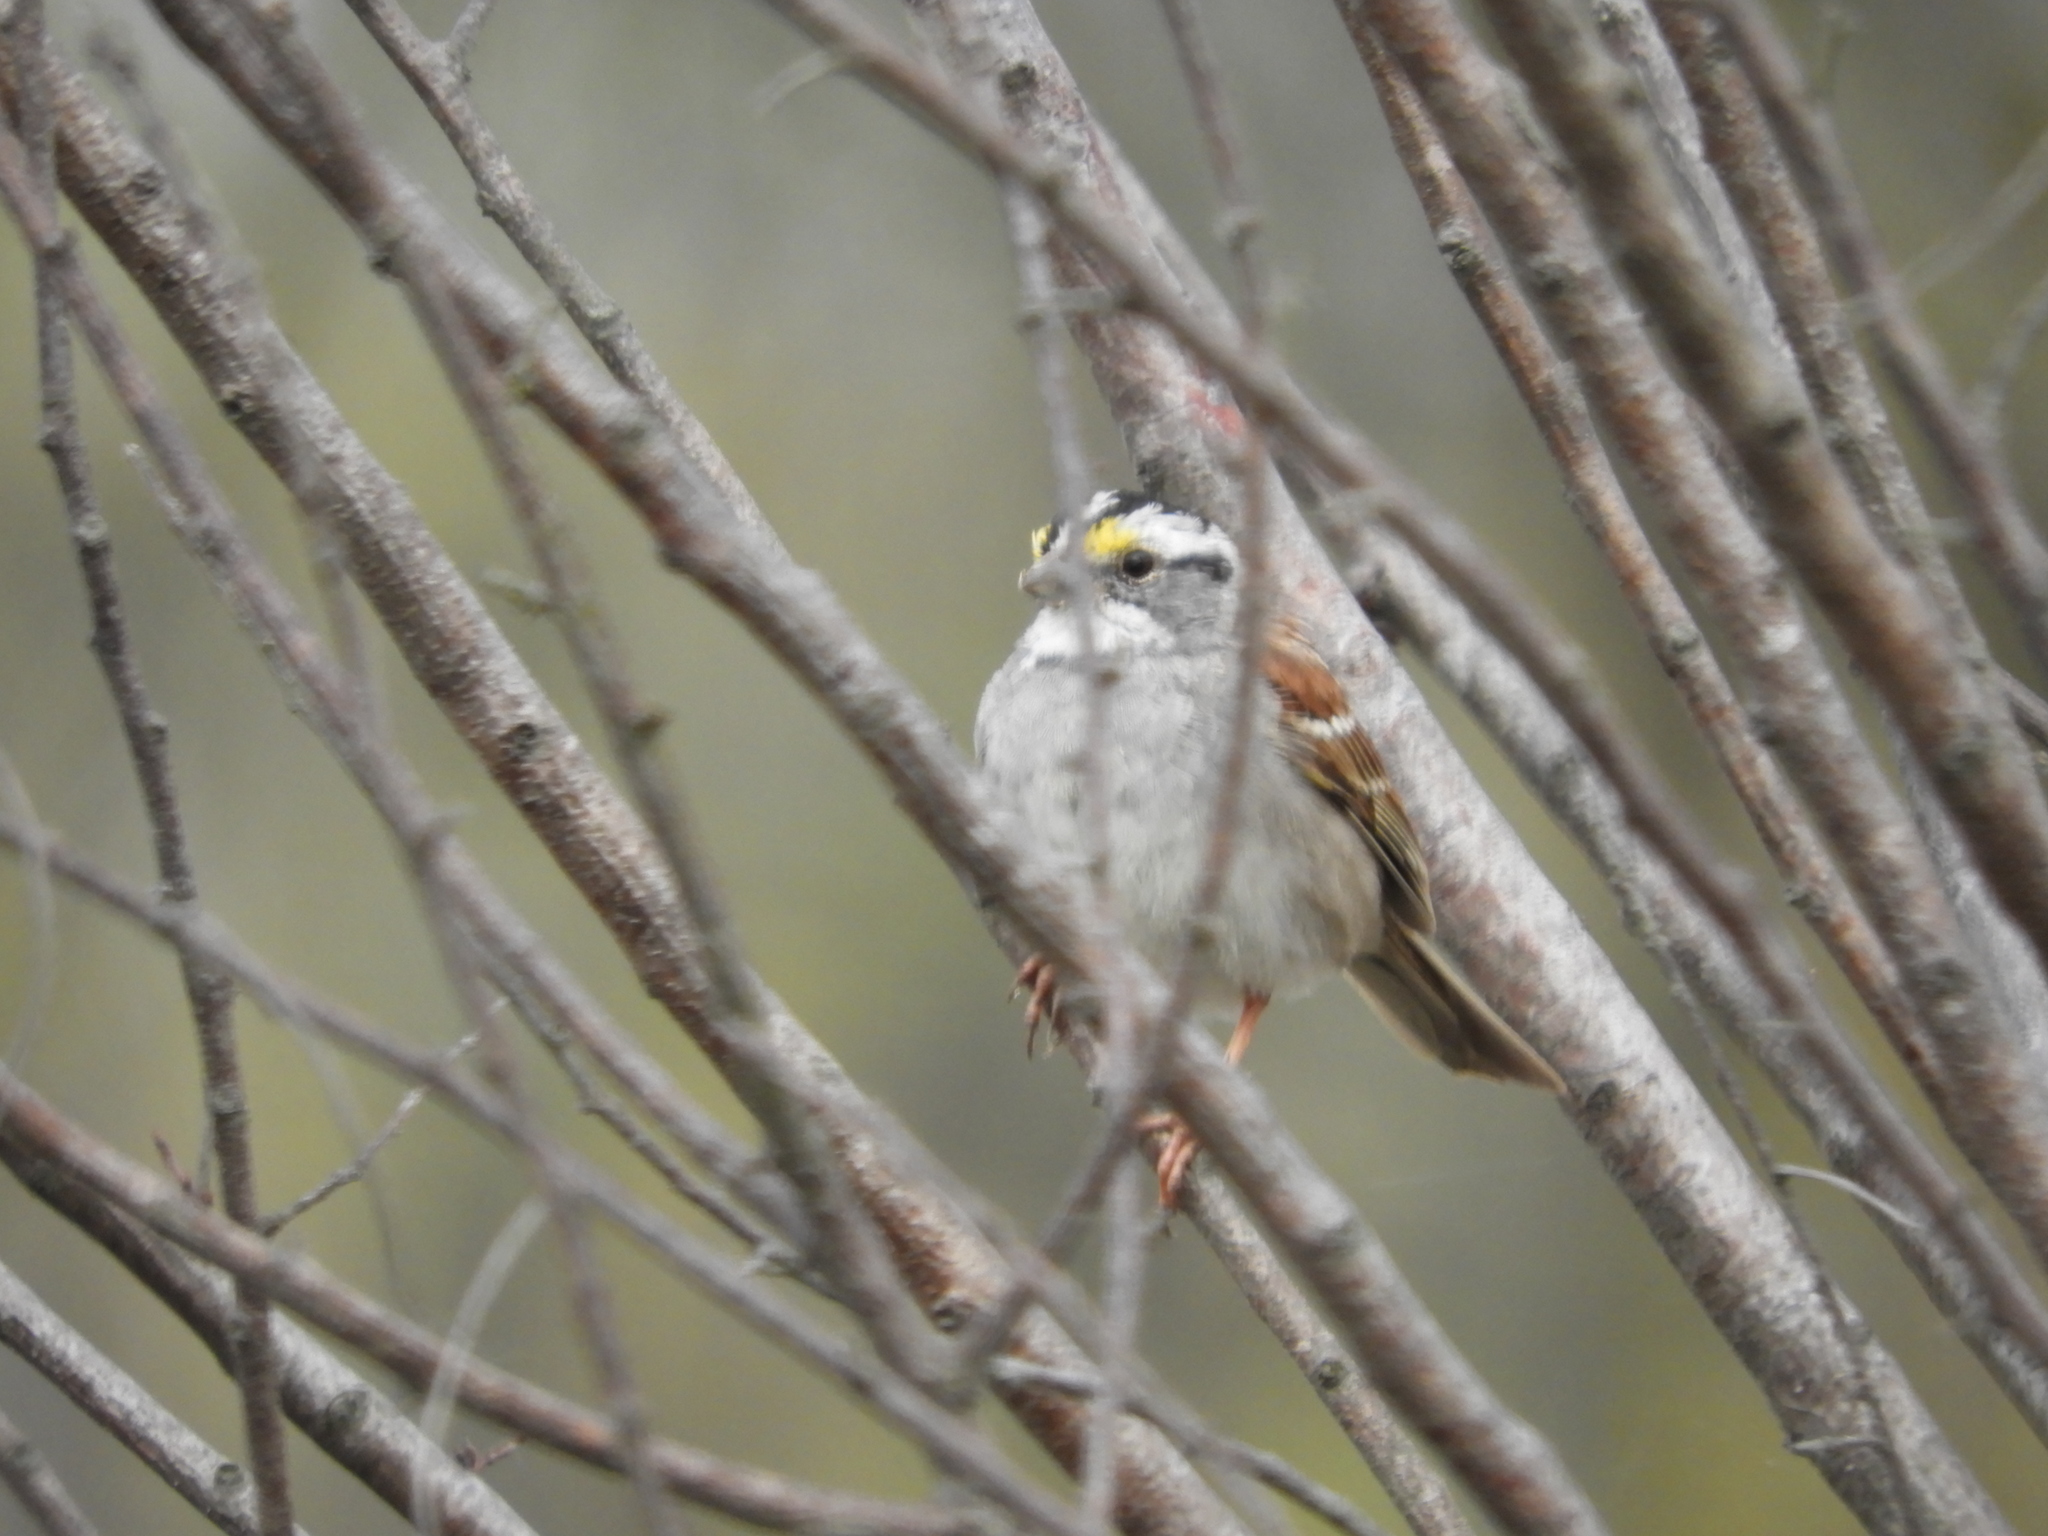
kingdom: Animalia
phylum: Chordata
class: Aves
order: Passeriformes
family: Passerellidae
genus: Zonotrichia
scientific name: Zonotrichia albicollis
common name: White-throated sparrow
